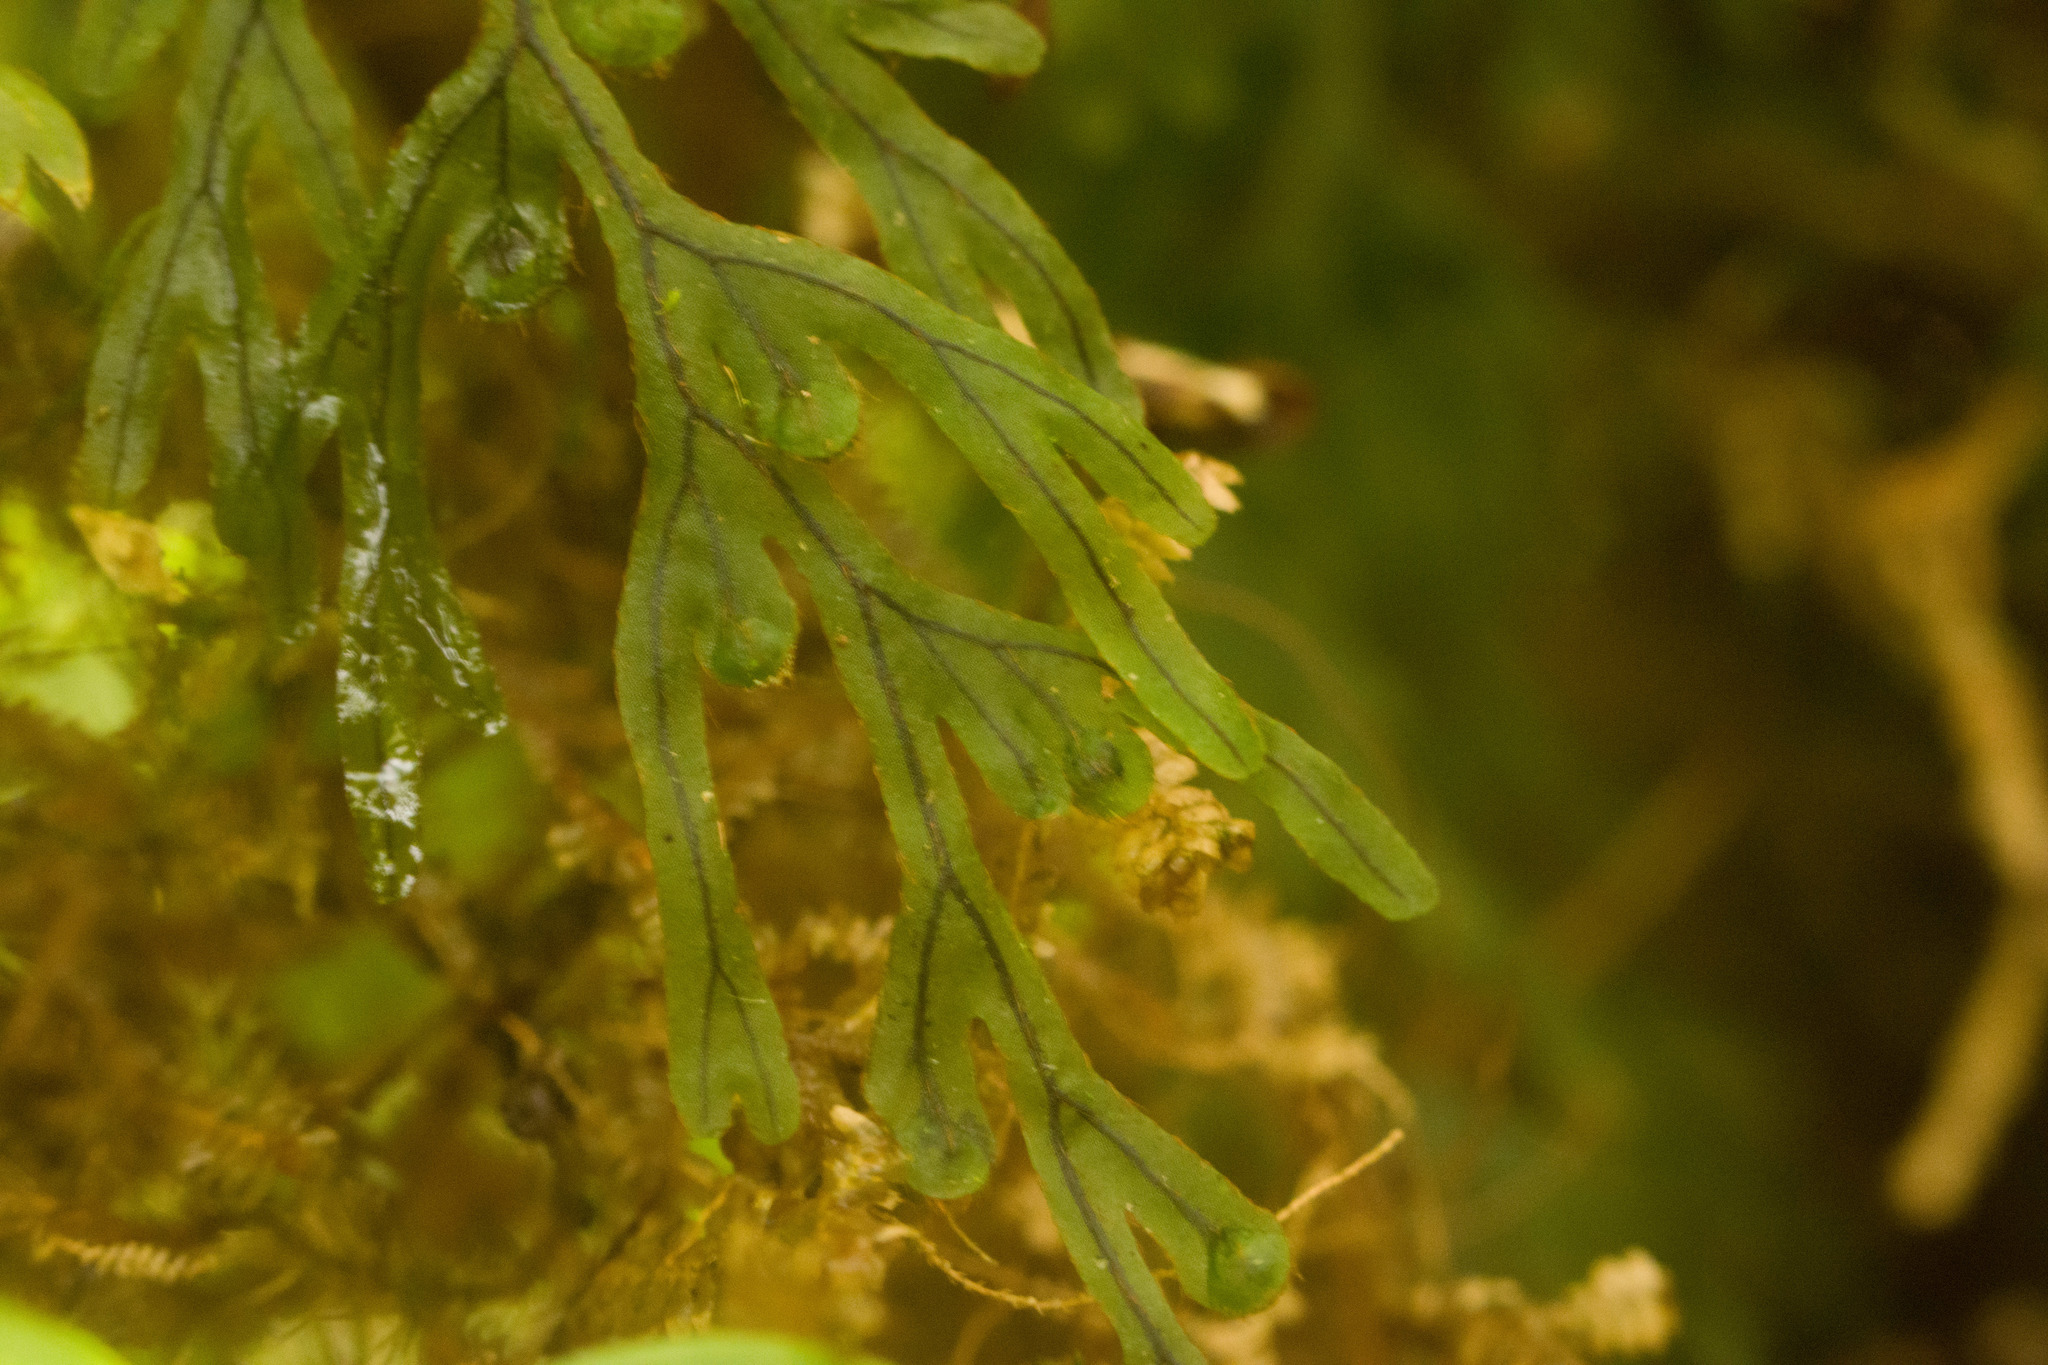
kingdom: Plantae
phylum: Tracheophyta
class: Polypodiopsida
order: Hymenophyllales
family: Hymenophyllaceae
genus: Hymenophyllum
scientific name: Hymenophyllum lanceolatum
